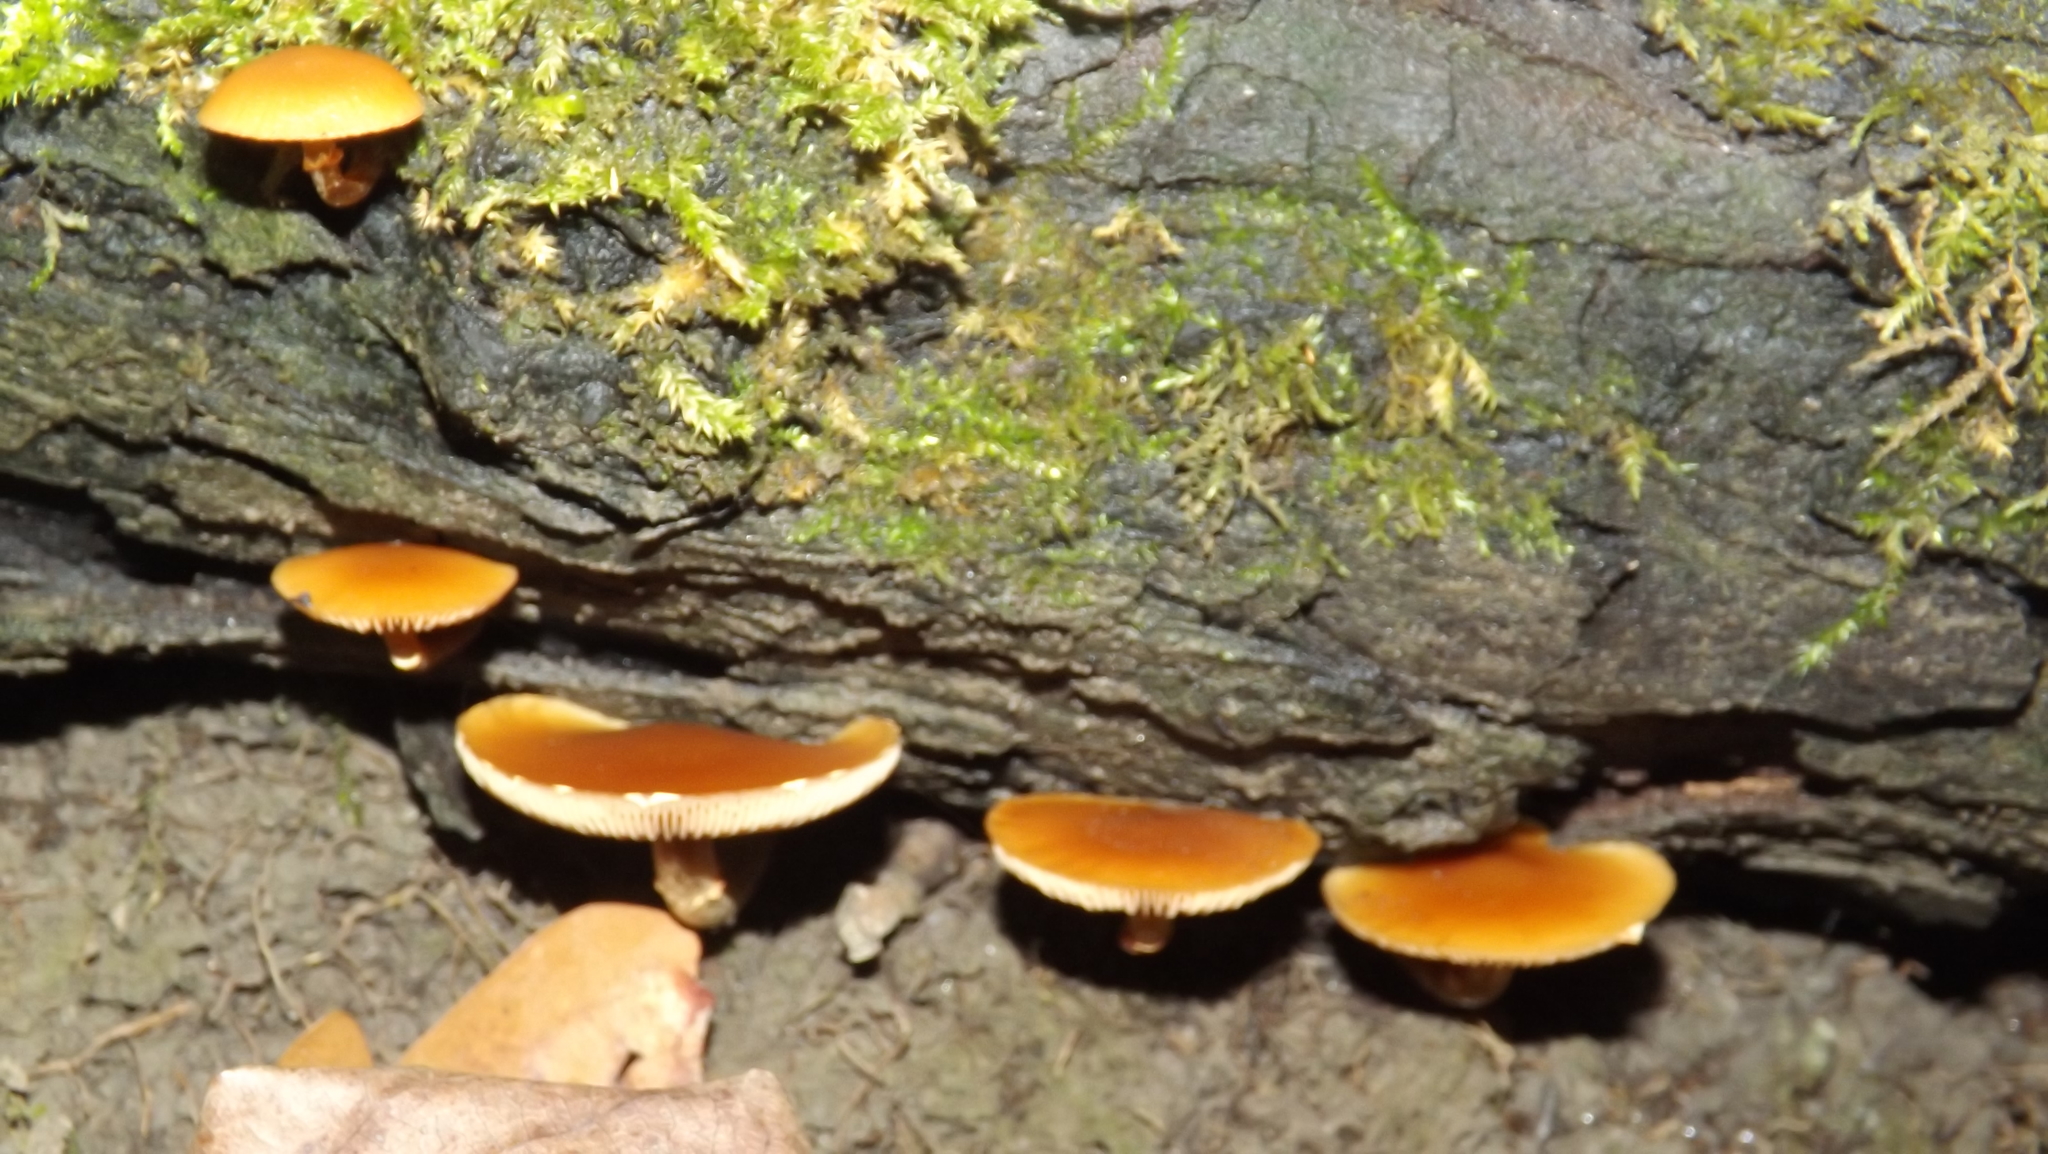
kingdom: Fungi
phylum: Basidiomycota
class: Agaricomycetes
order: Agaricales
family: Hymenogastraceae
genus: Galerina
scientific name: Galerina marginata
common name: Funeral bell
